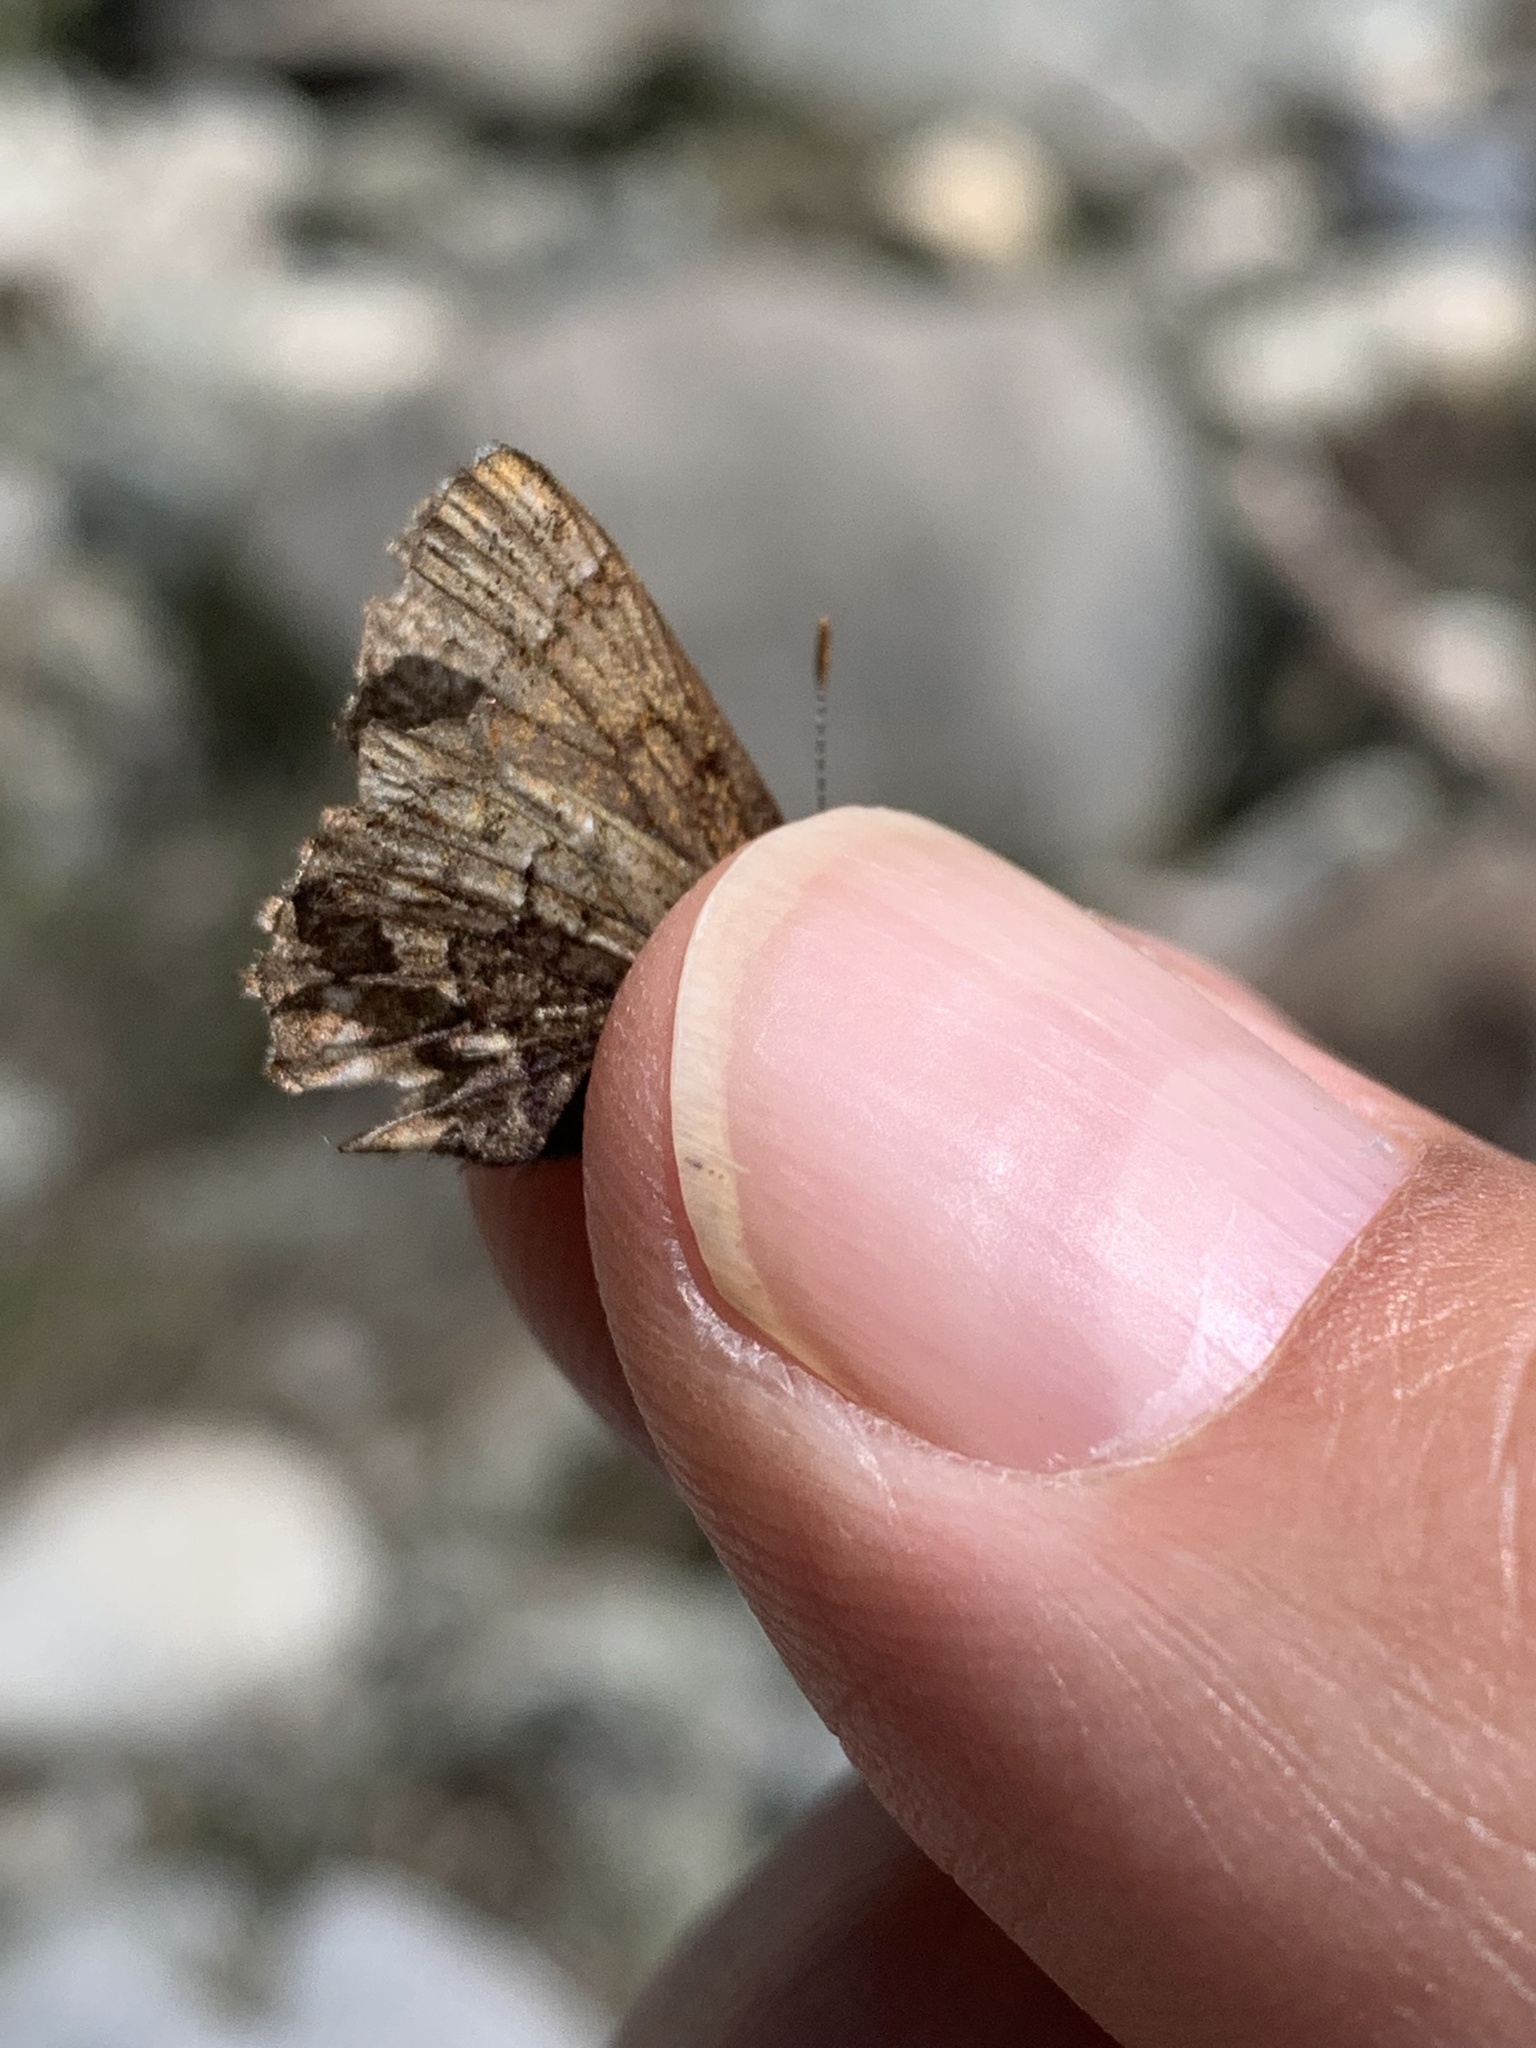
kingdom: Animalia
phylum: Arthropoda
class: Insecta
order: Lepidoptera
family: Lycaenidae
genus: Incisalia
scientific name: Incisalia eryphon
